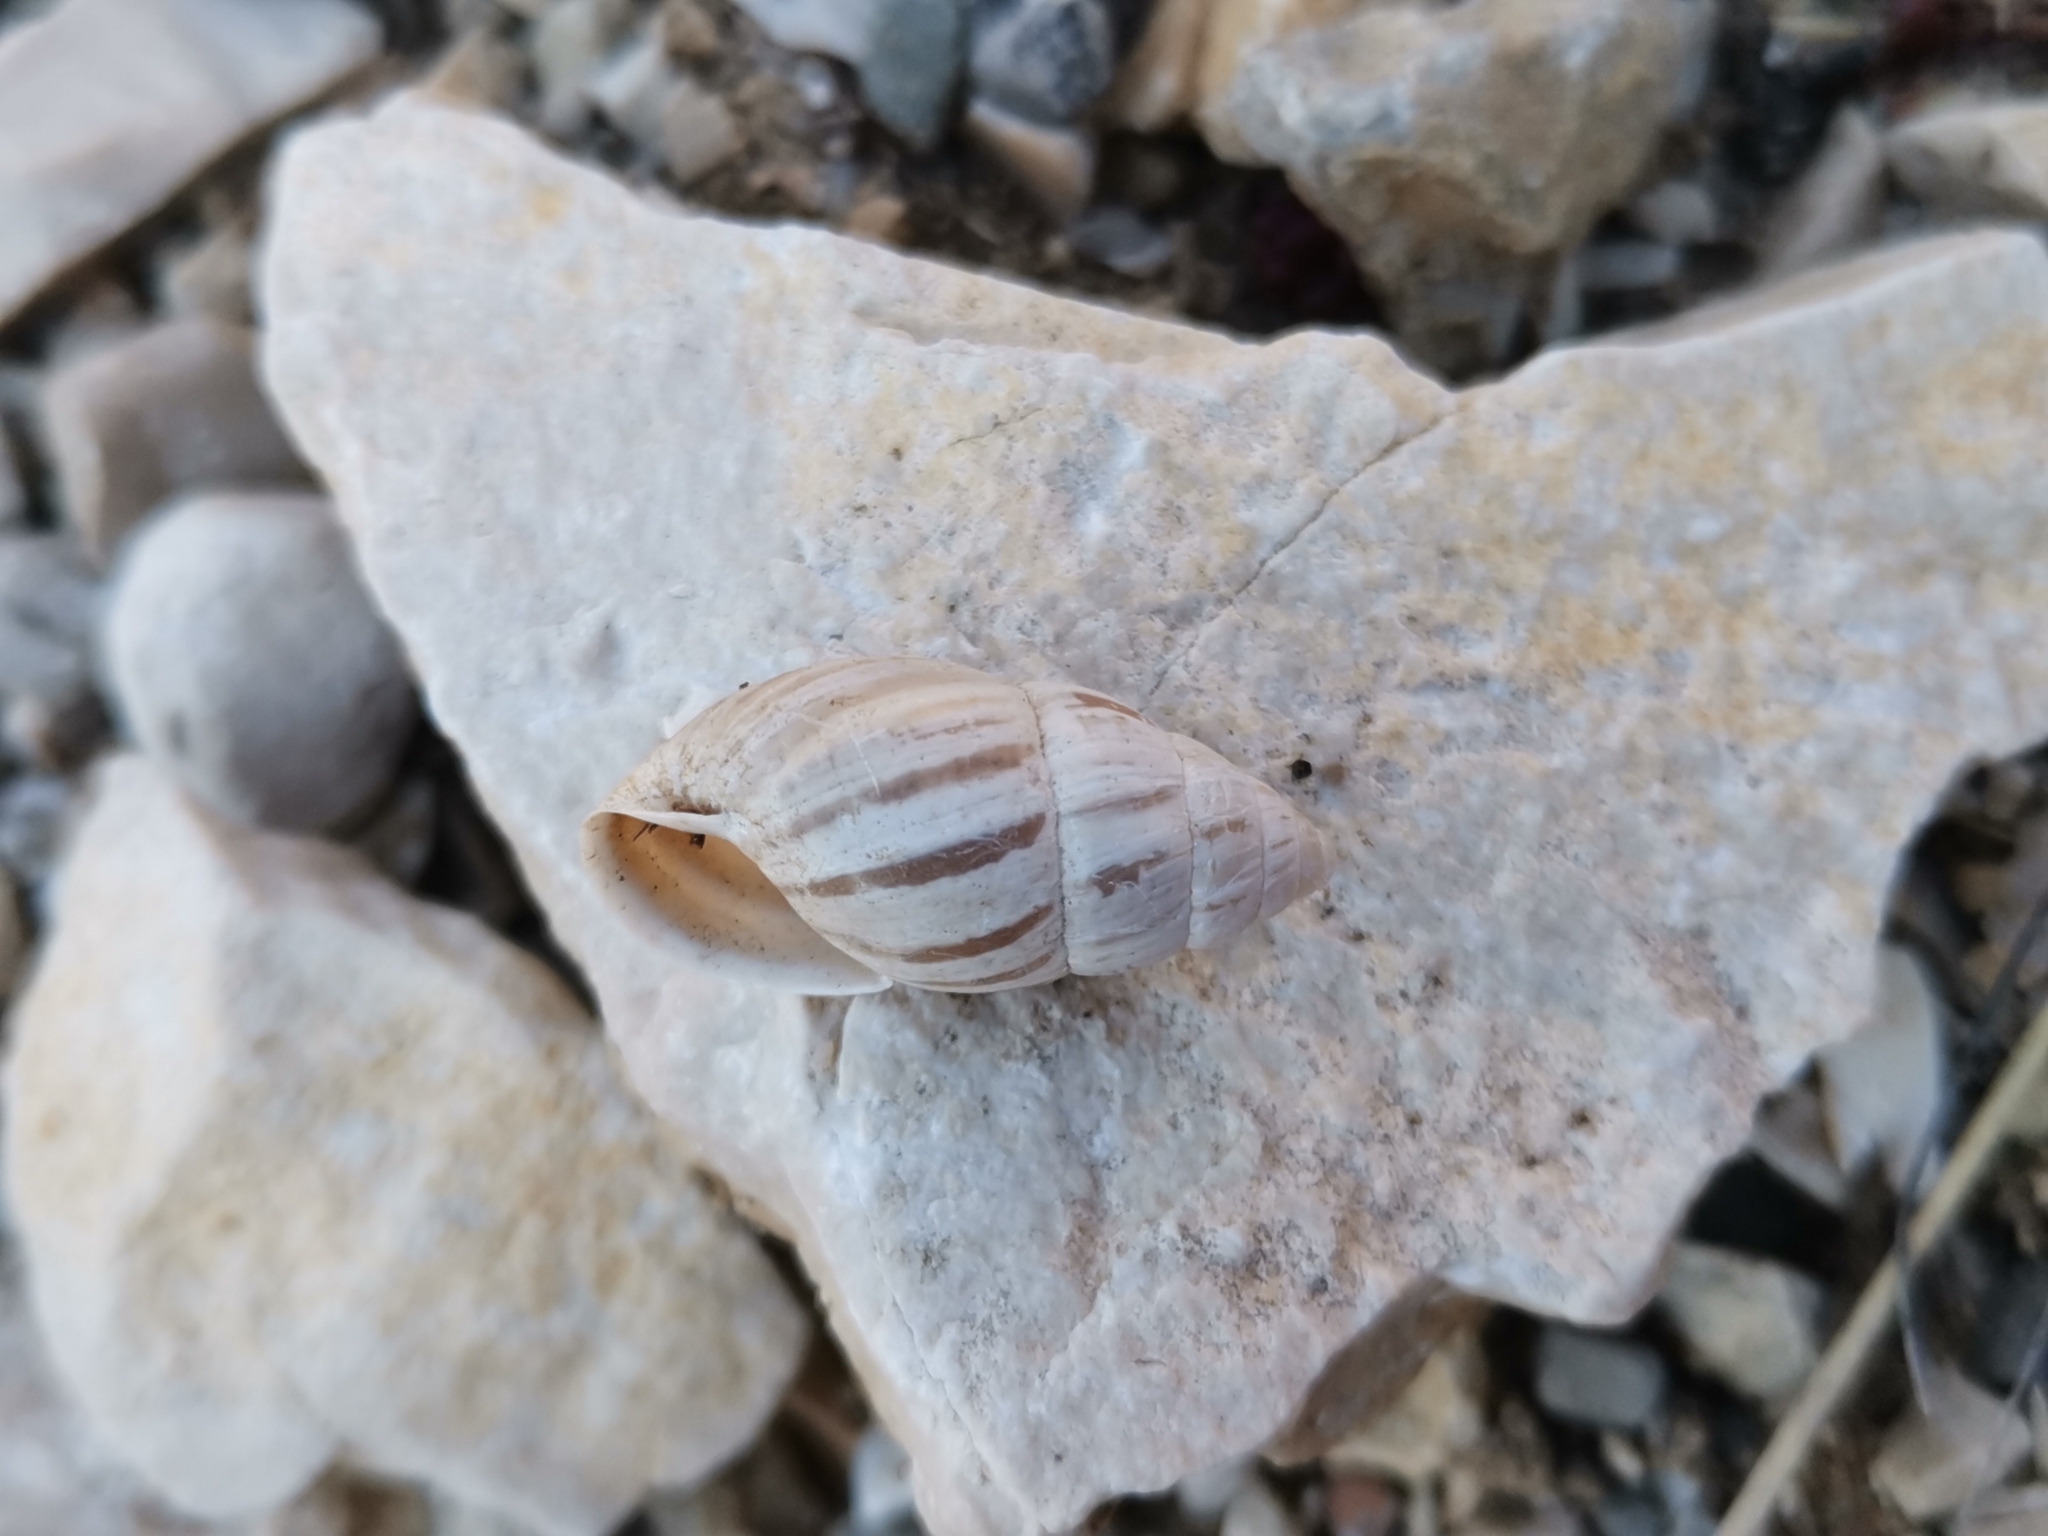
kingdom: Animalia
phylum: Mollusca
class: Gastropoda
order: Stylommatophora
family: Enidae
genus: Zebrina
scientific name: Zebrina detrita
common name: Large bulin
